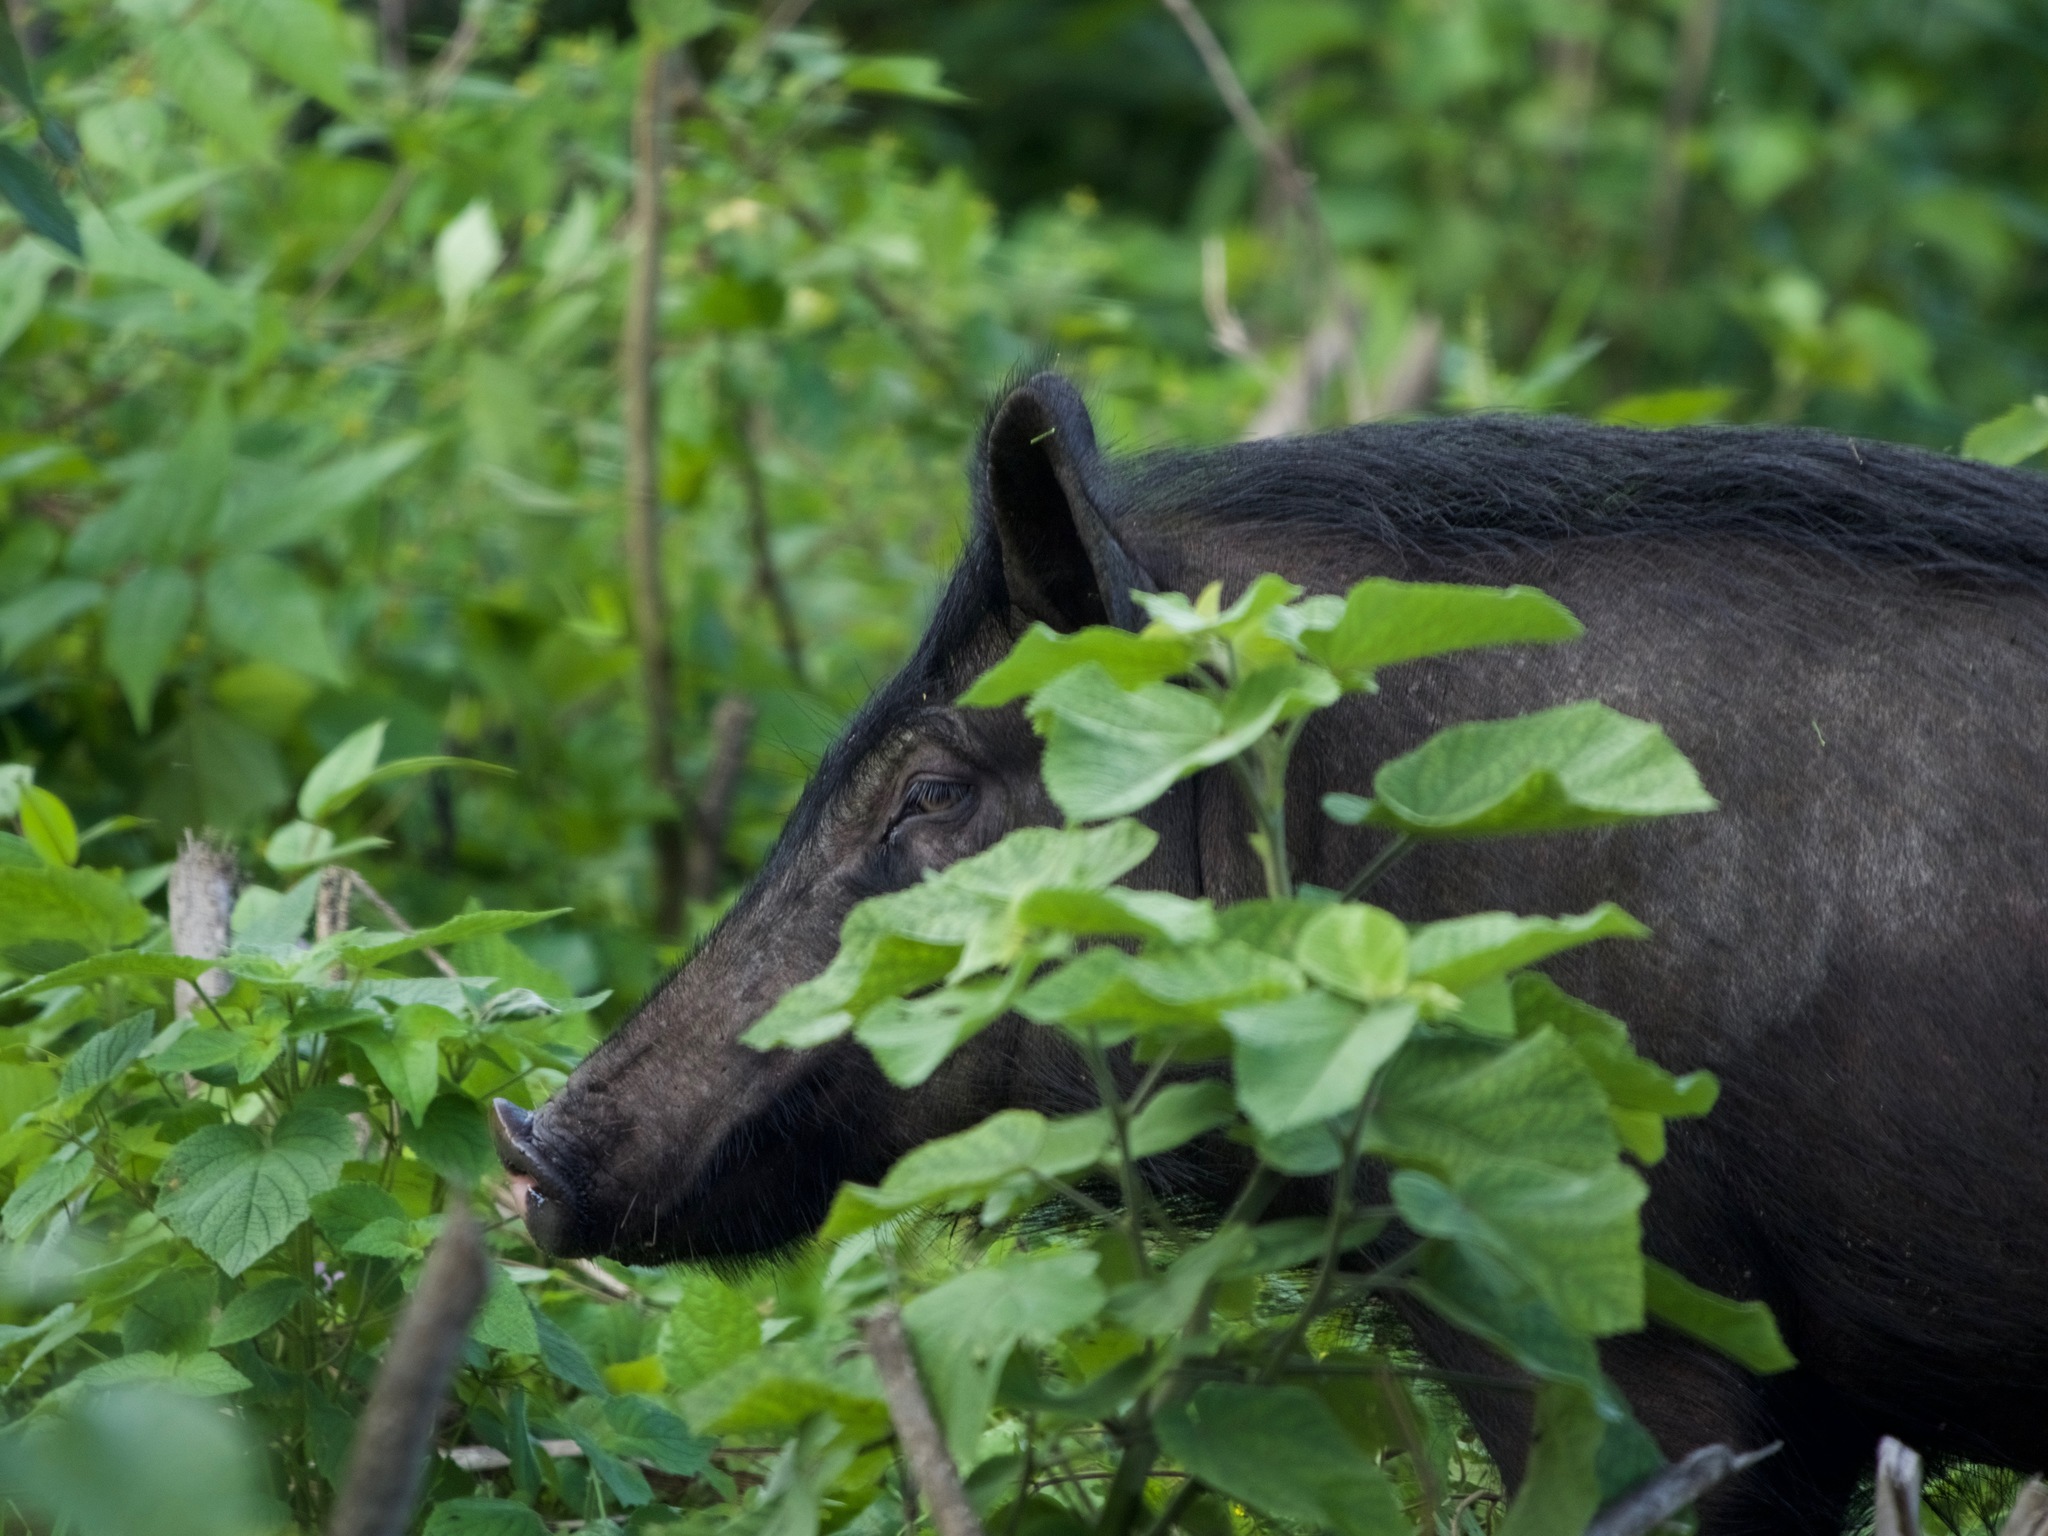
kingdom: Animalia
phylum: Chordata
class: Mammalia
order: Artiodactyla
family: Suidae
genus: Sus
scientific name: Sus scrofa
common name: Wild boar
